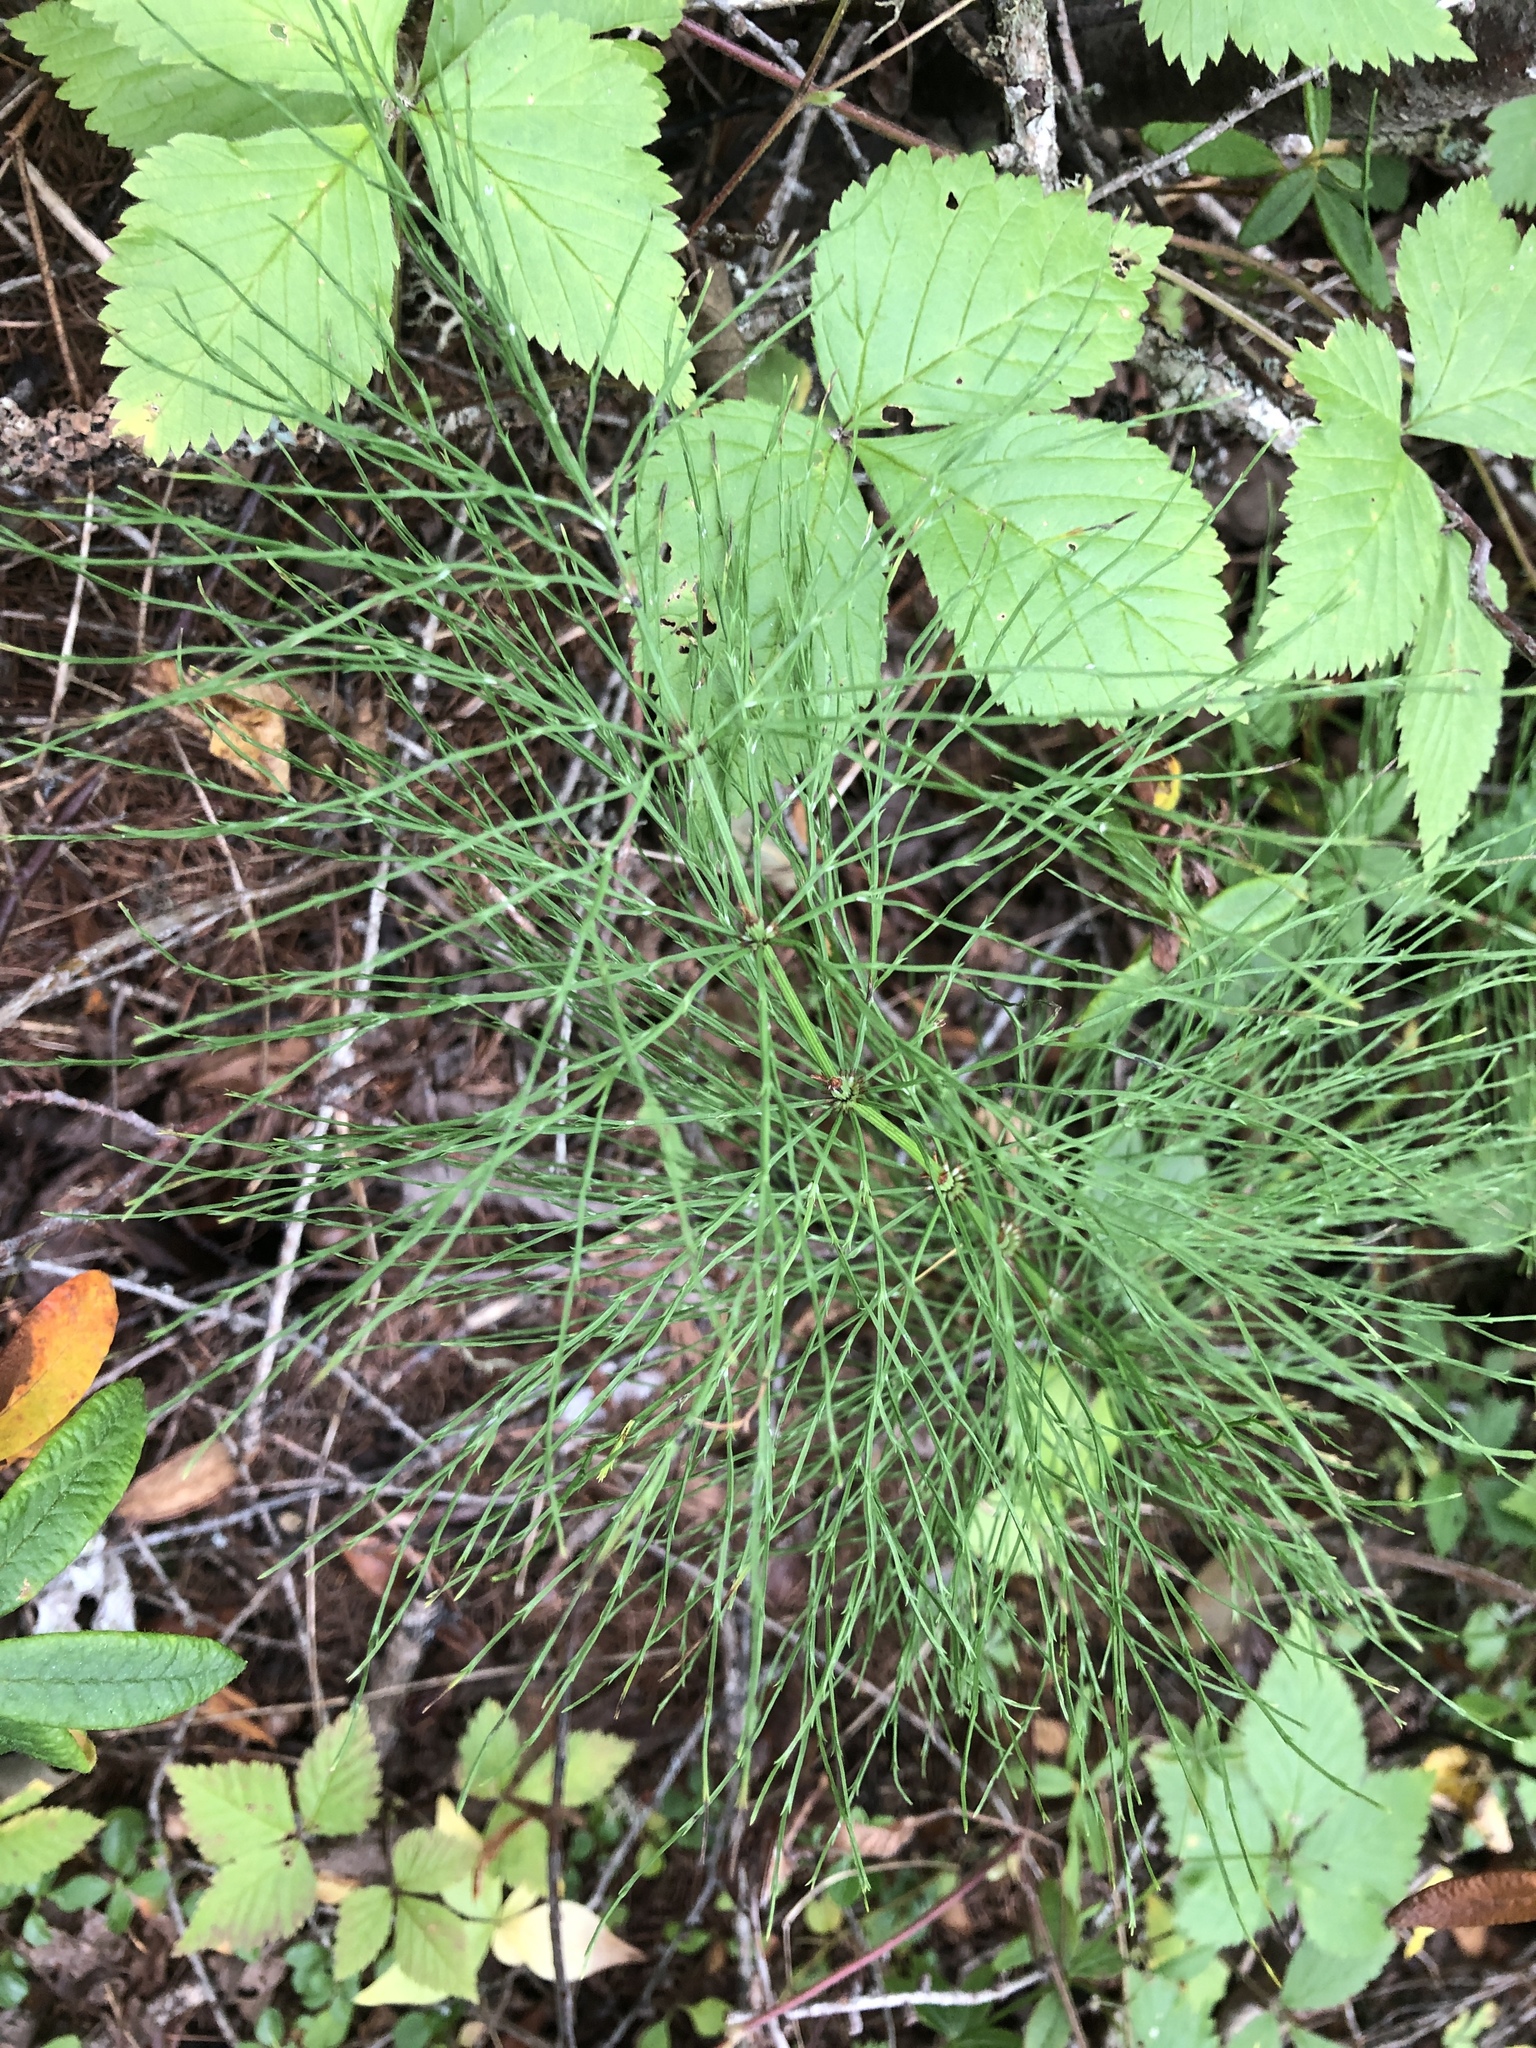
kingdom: Plantae
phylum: Tracheophyta
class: Polypodiopsida
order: Equisetales
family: Equisetaceae
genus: Equisetum
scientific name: Equisetum sylvaticum
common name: Wood horsetail
